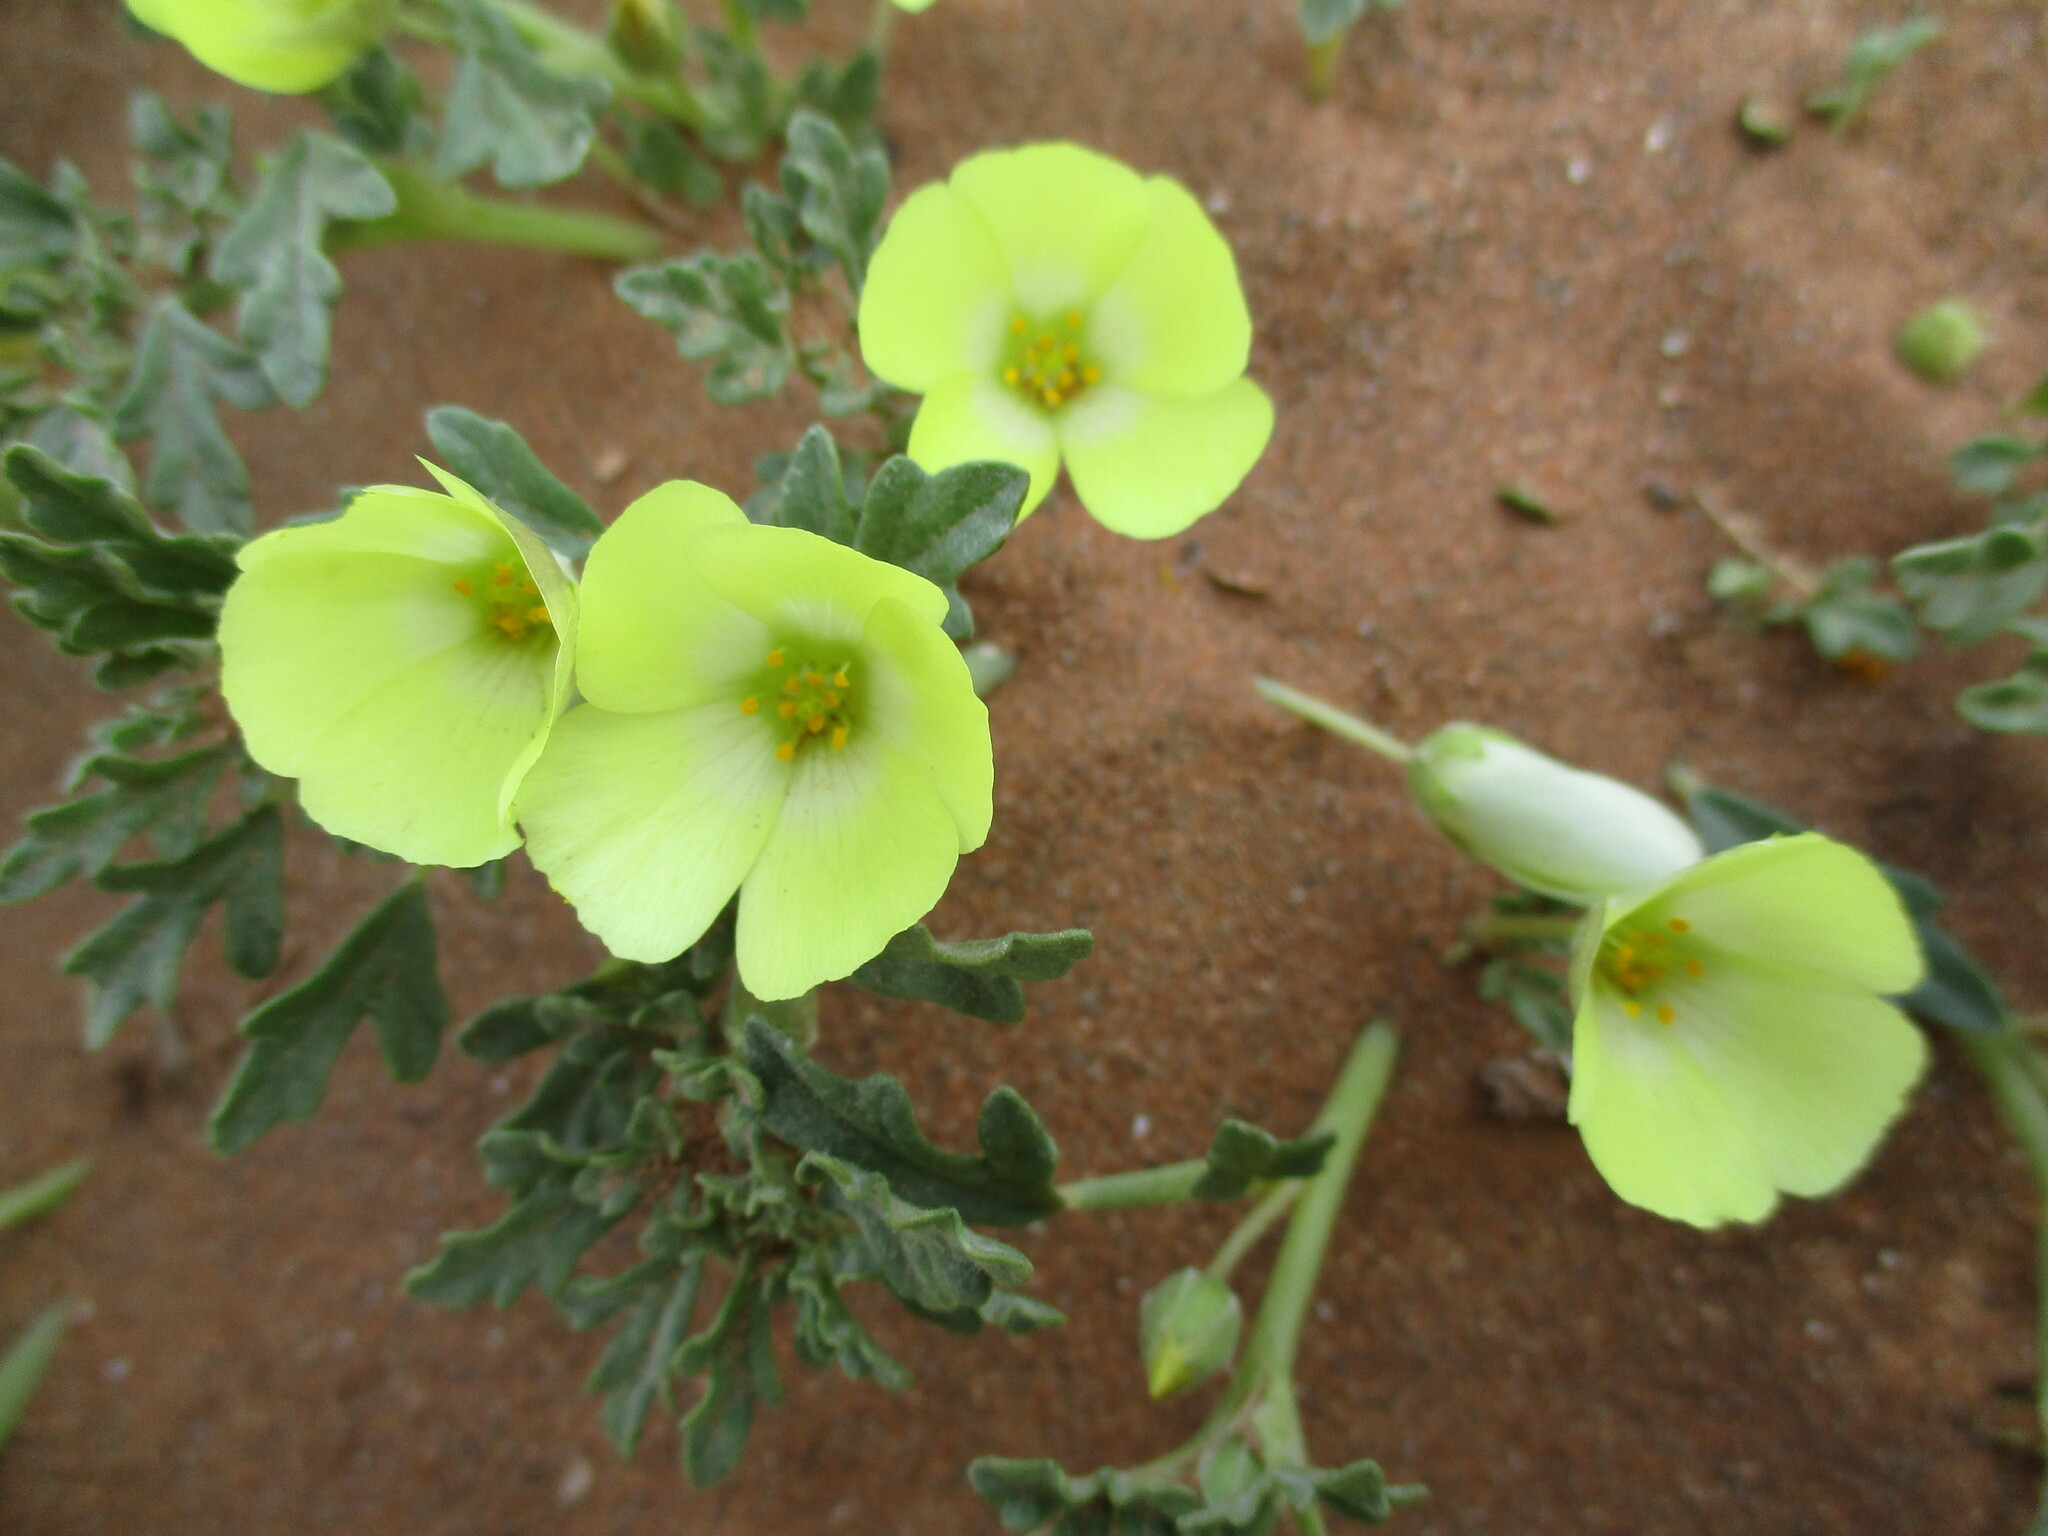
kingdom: Plantae
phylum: Tracheophyta
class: Magnoliopsida
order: Malvales
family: Neuradaceae
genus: Grielum
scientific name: Grielum sinuatum
